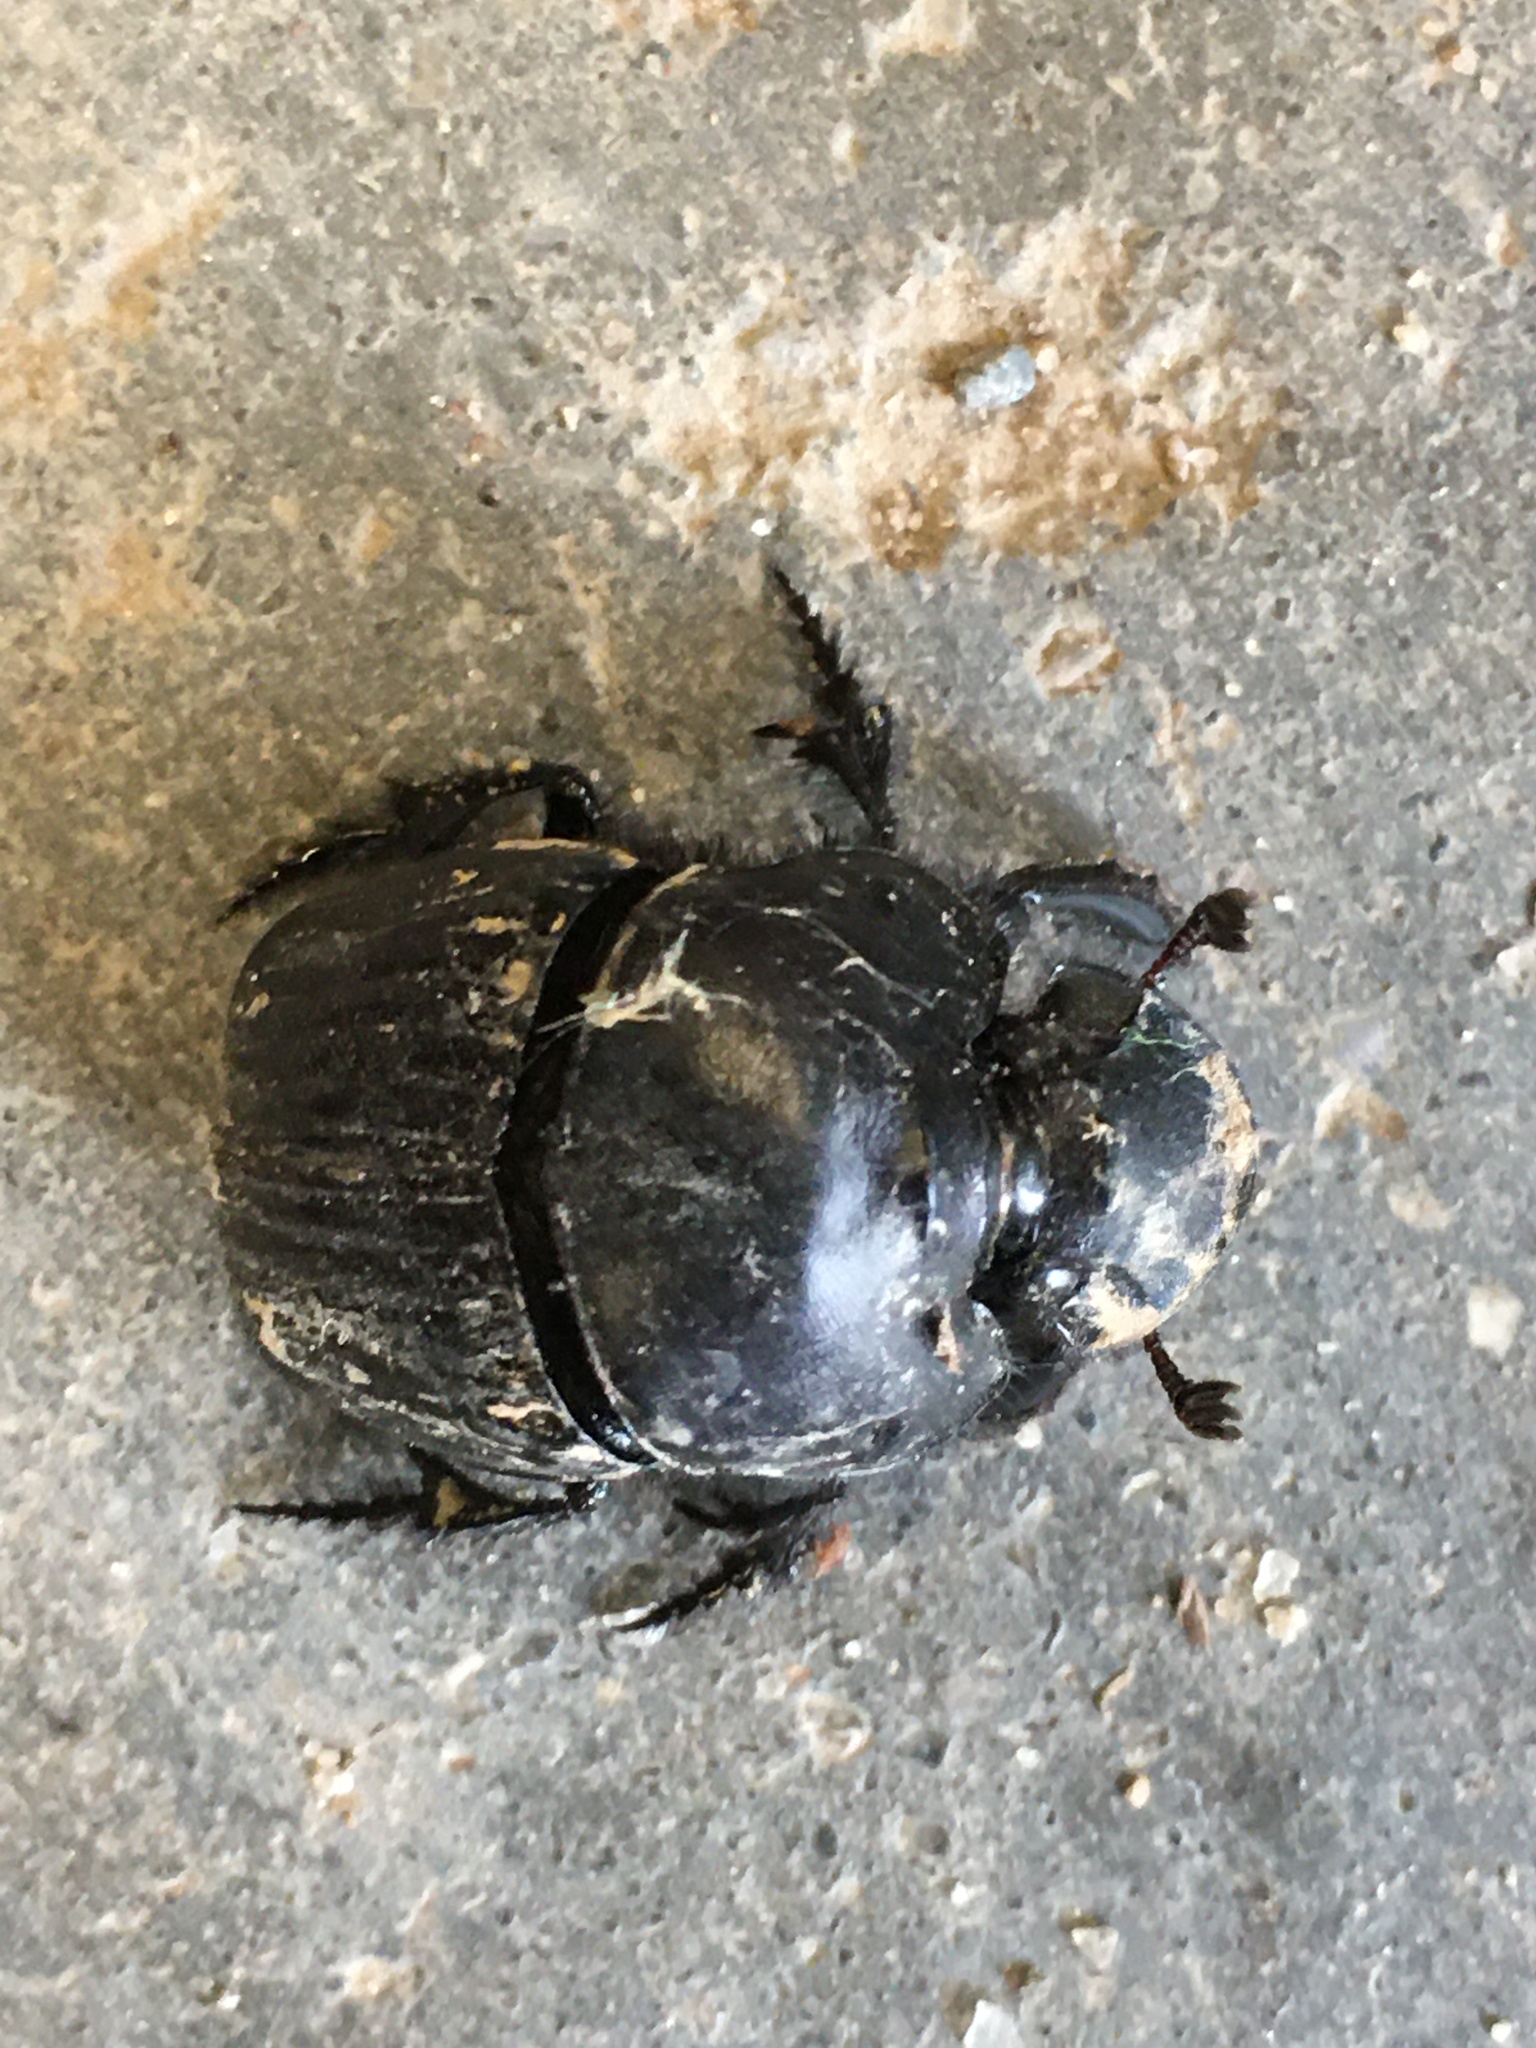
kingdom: Animalia
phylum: Arthropoda
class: Insecta
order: Coleoptera
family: Scarabaeidae
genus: Dichotomius
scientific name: Dichotomius carolinus
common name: Carolina copris
